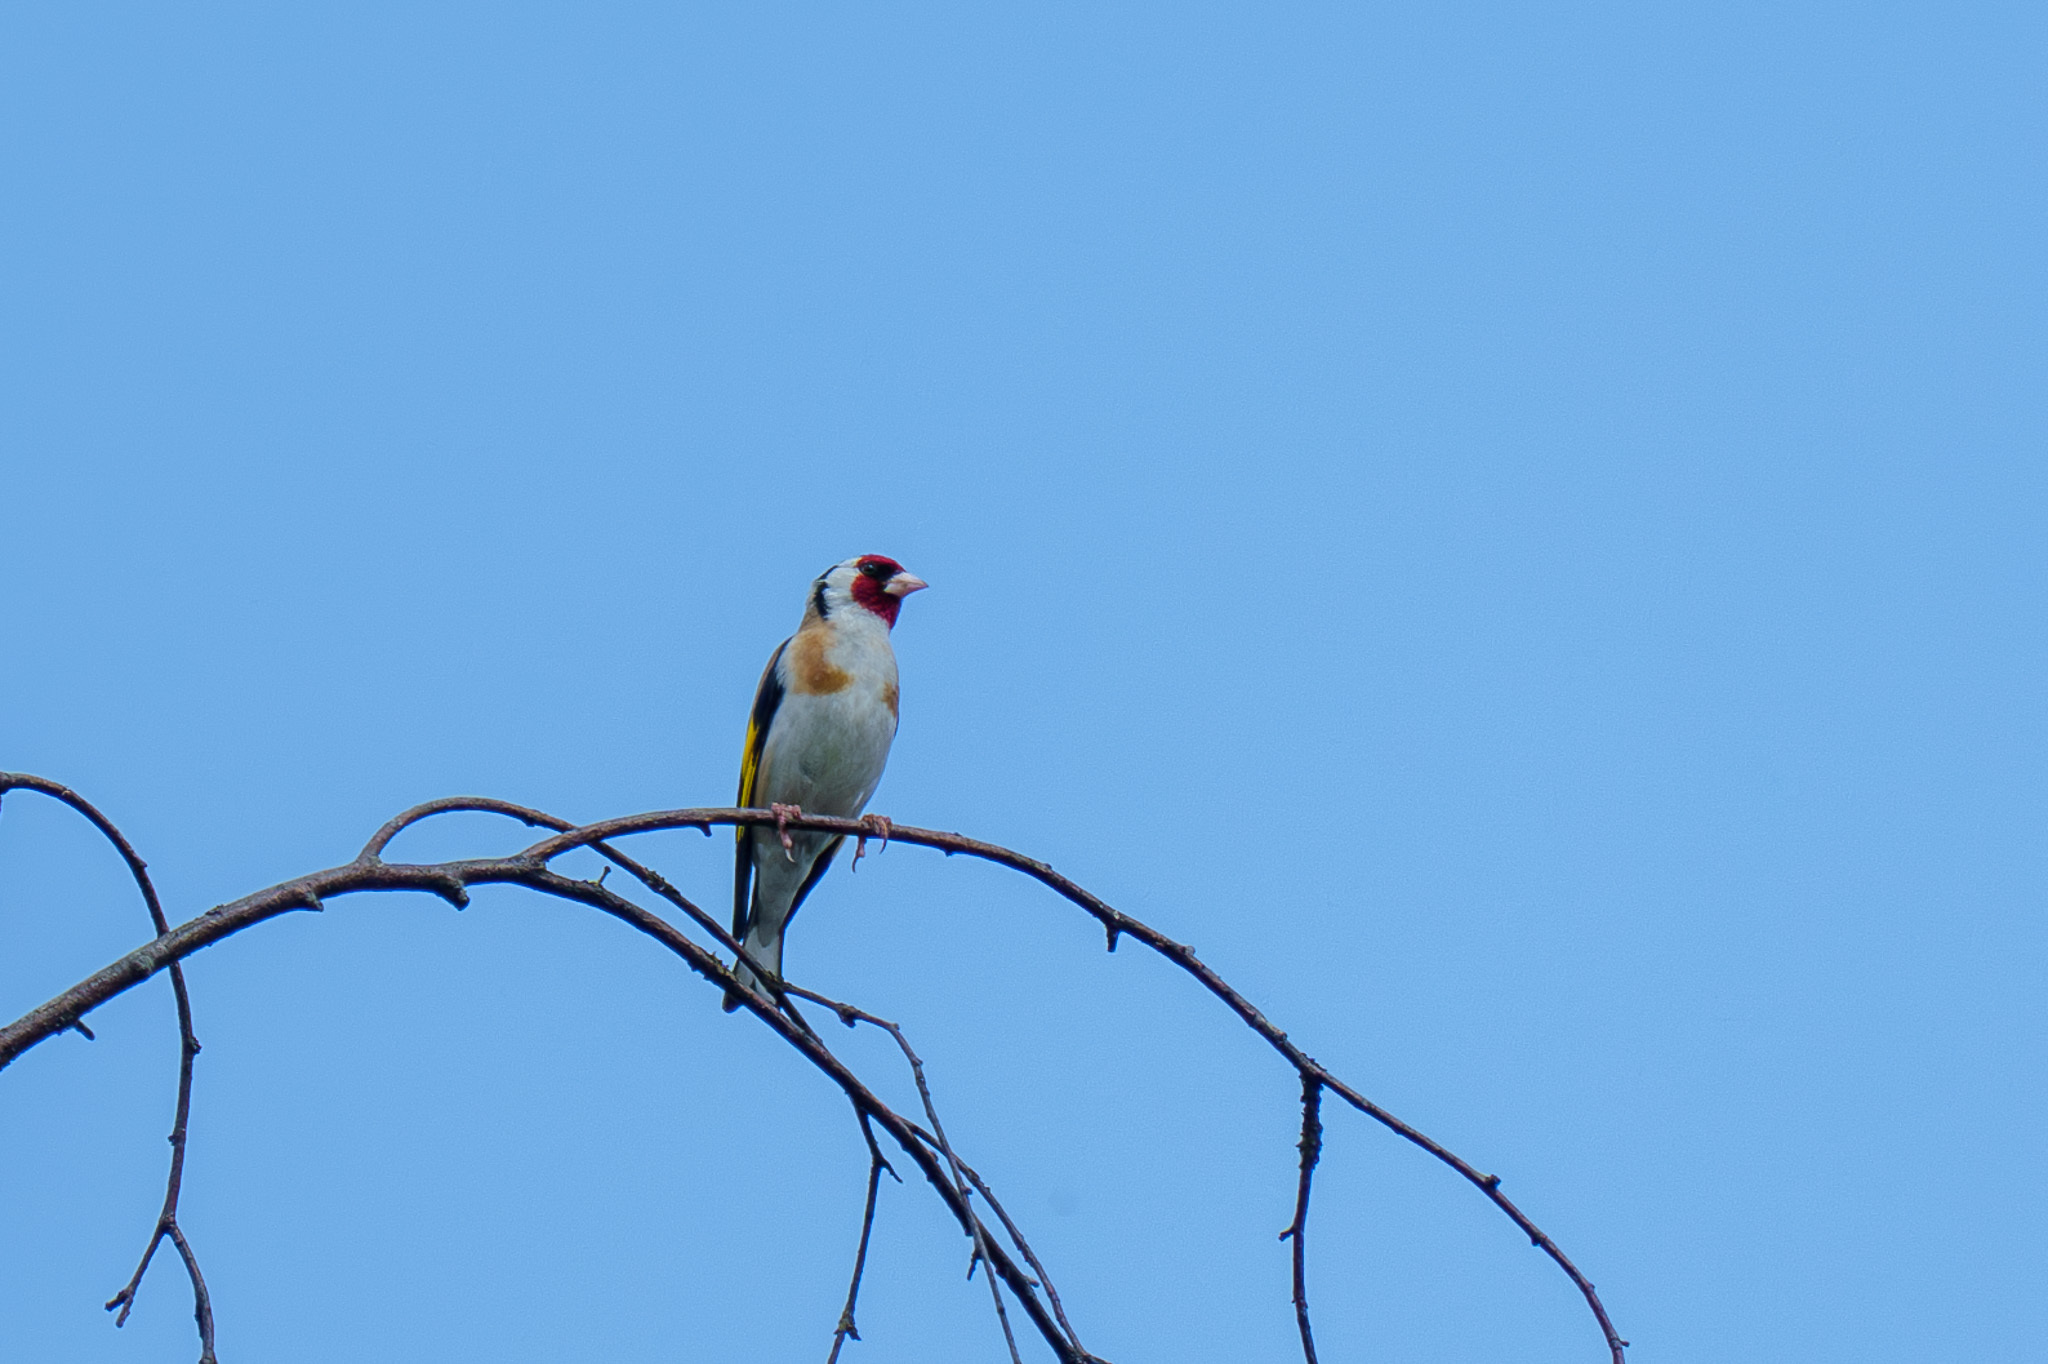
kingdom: Animalia
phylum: Chordata
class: Aves
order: Passeriformes
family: Fringillidae
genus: Carduelis
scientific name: Carduelis carduelis
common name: European goldfinch
